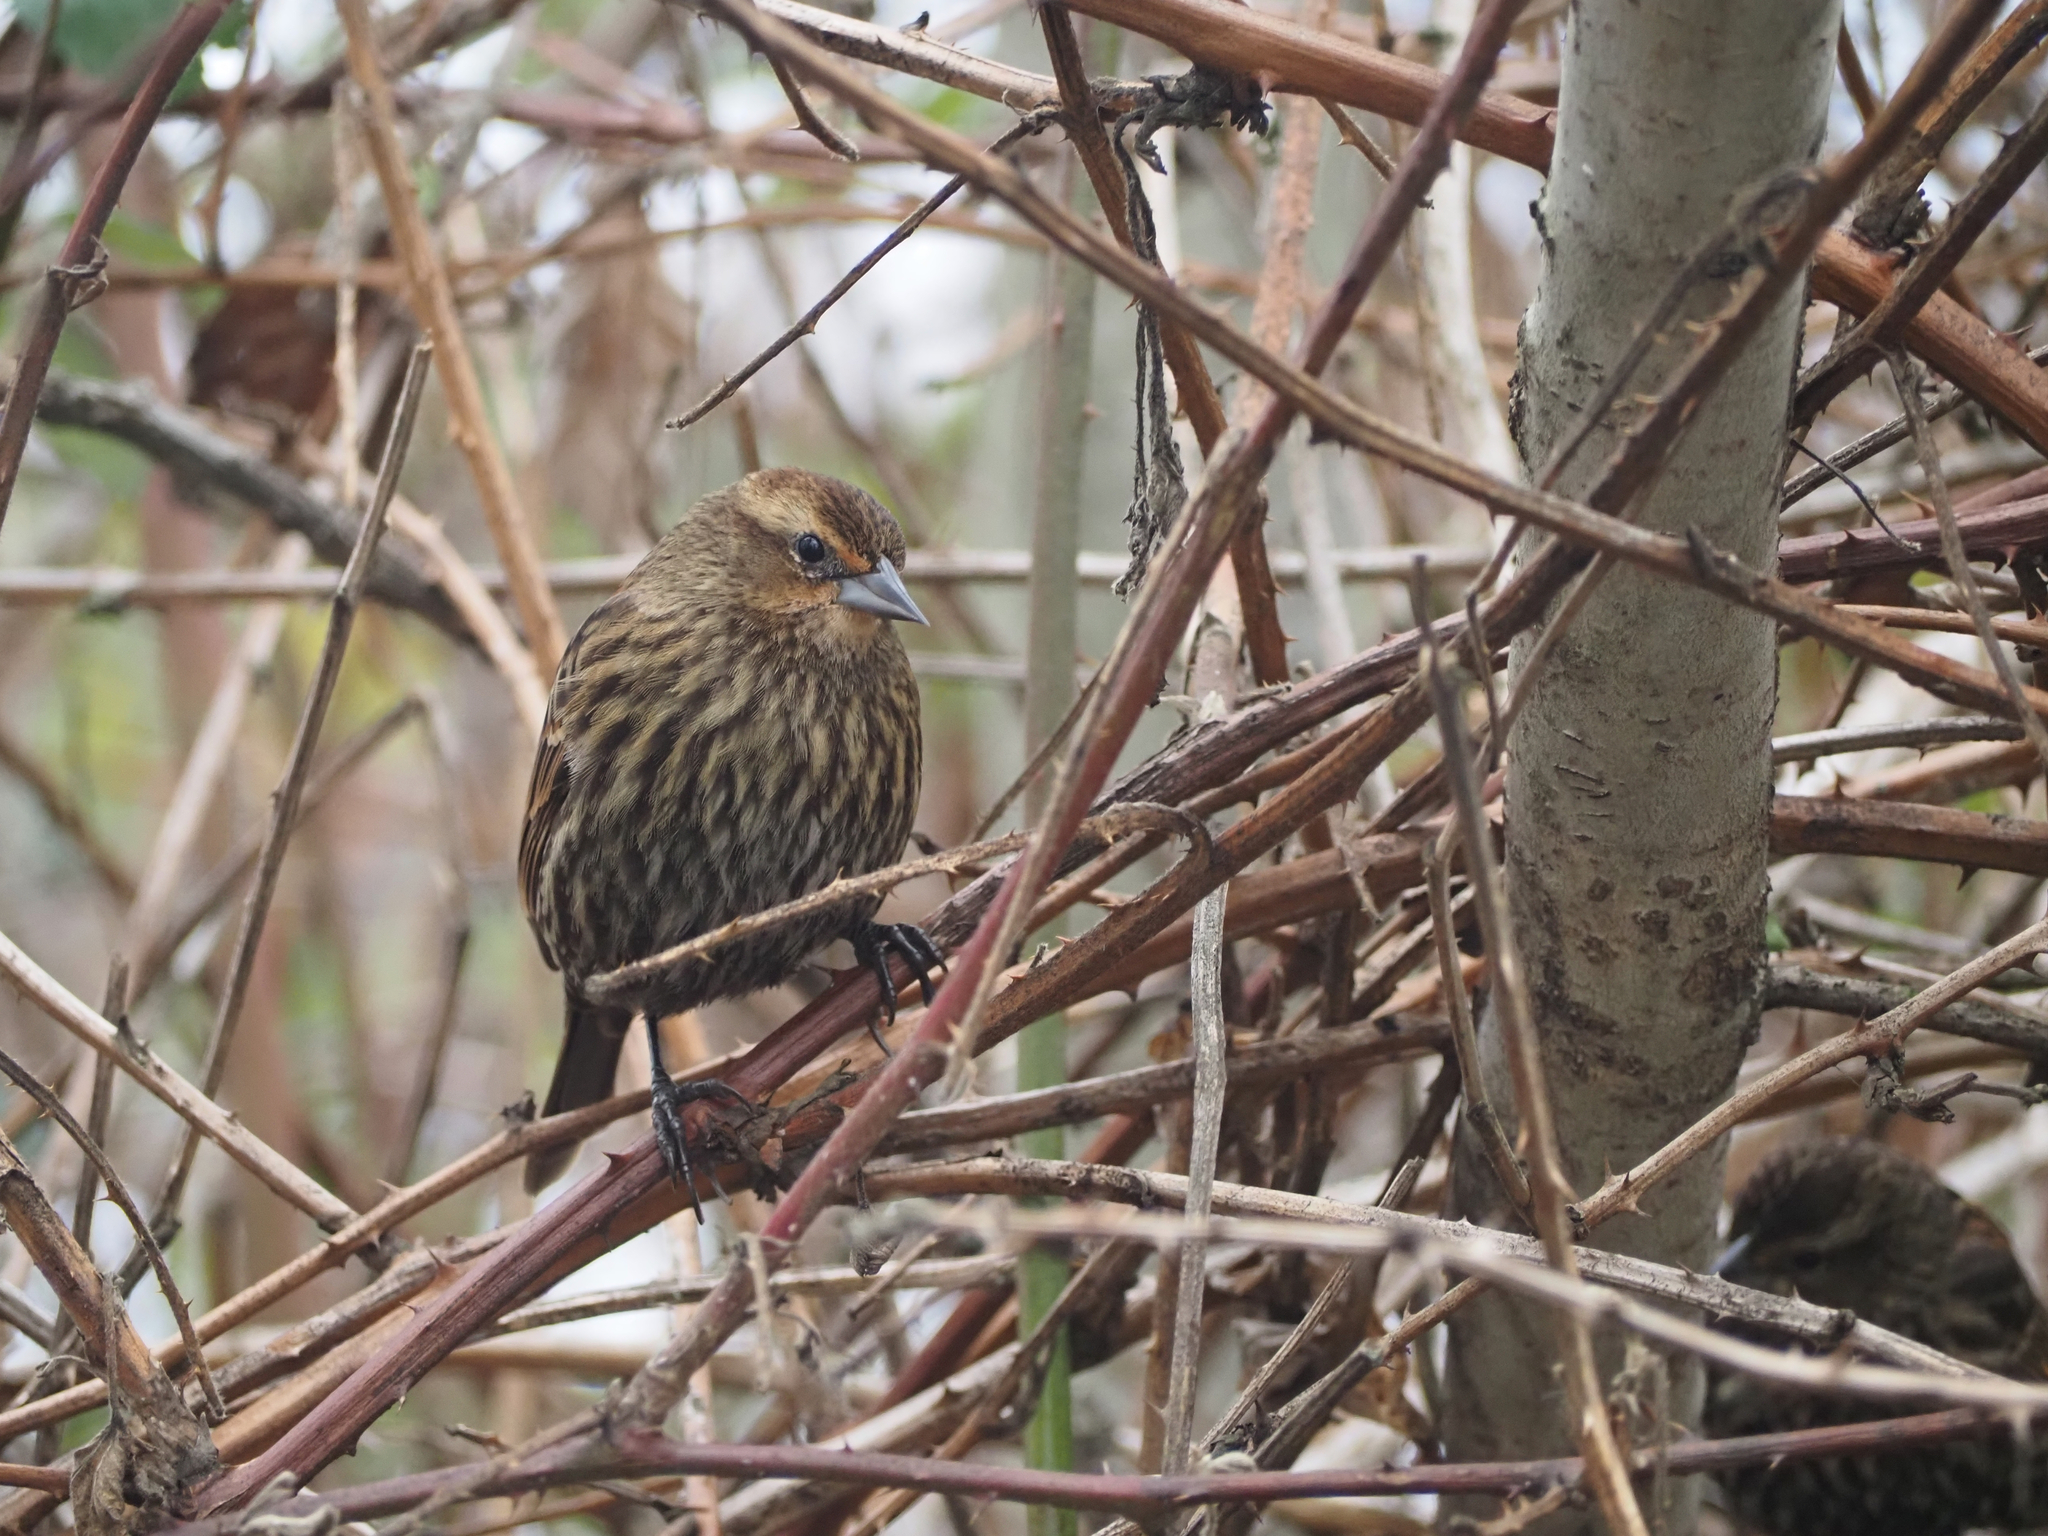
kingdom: Animalia
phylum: Chordata
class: Aves
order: Passeriformes
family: Icteridae
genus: Agelaius
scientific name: Agelaius phoeniceus
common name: Red-winged blackbird
